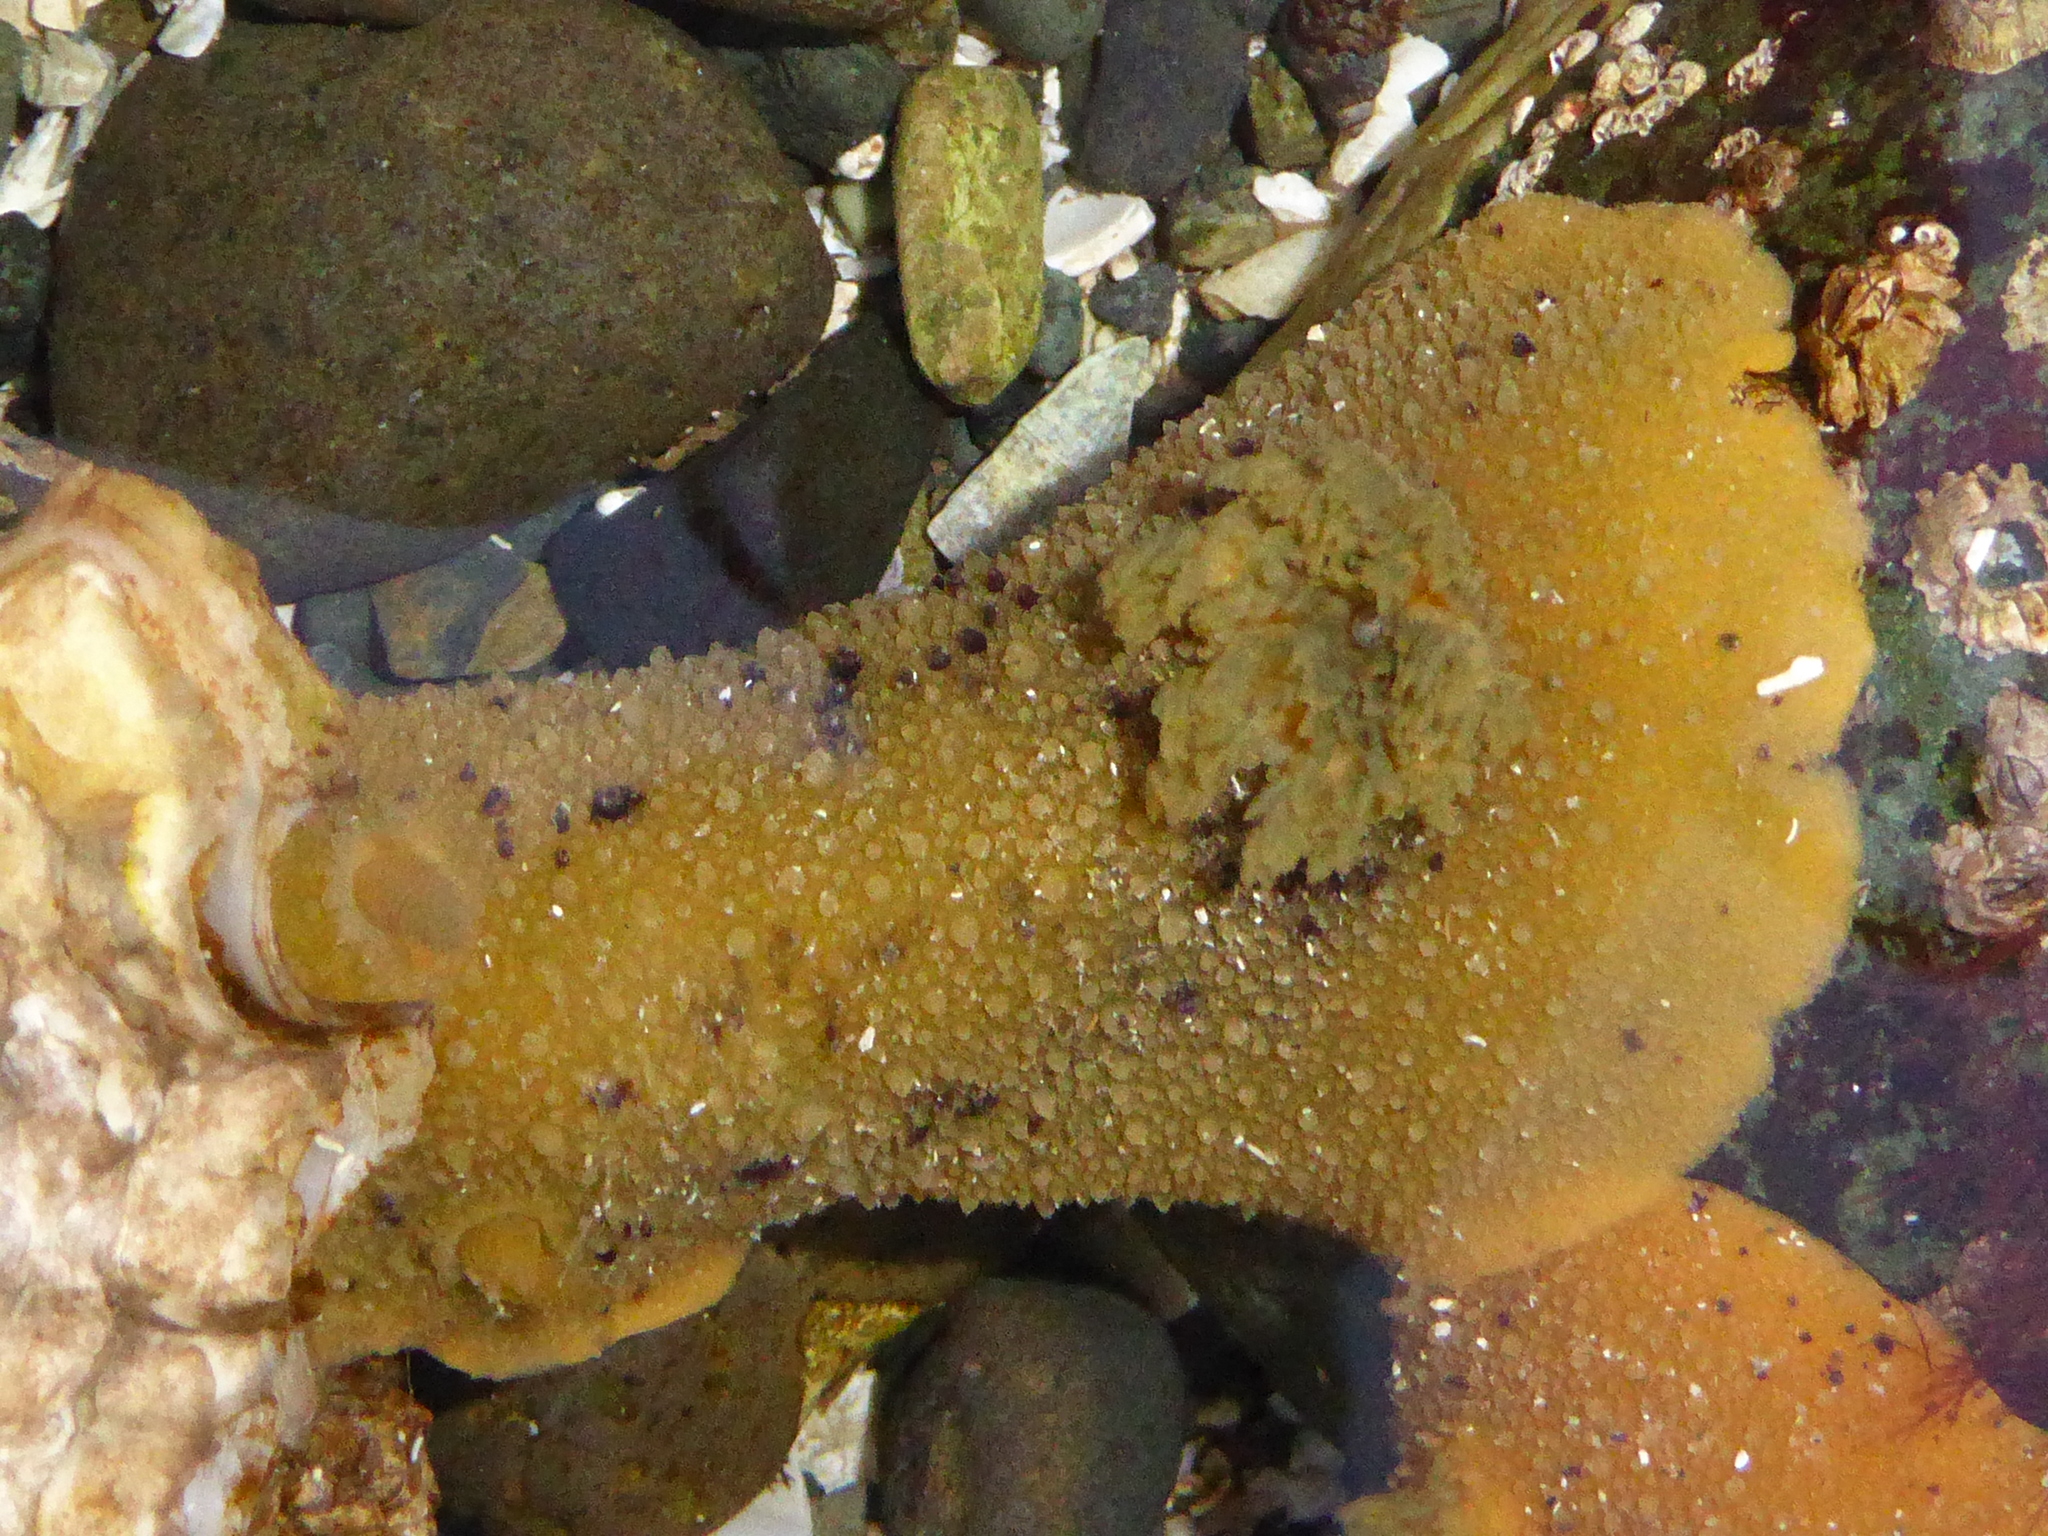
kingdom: Animalia
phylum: Mollusca
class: Gastropoda
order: Nudibranchia
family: Dorididae
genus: Doris
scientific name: Doris montereyensis
